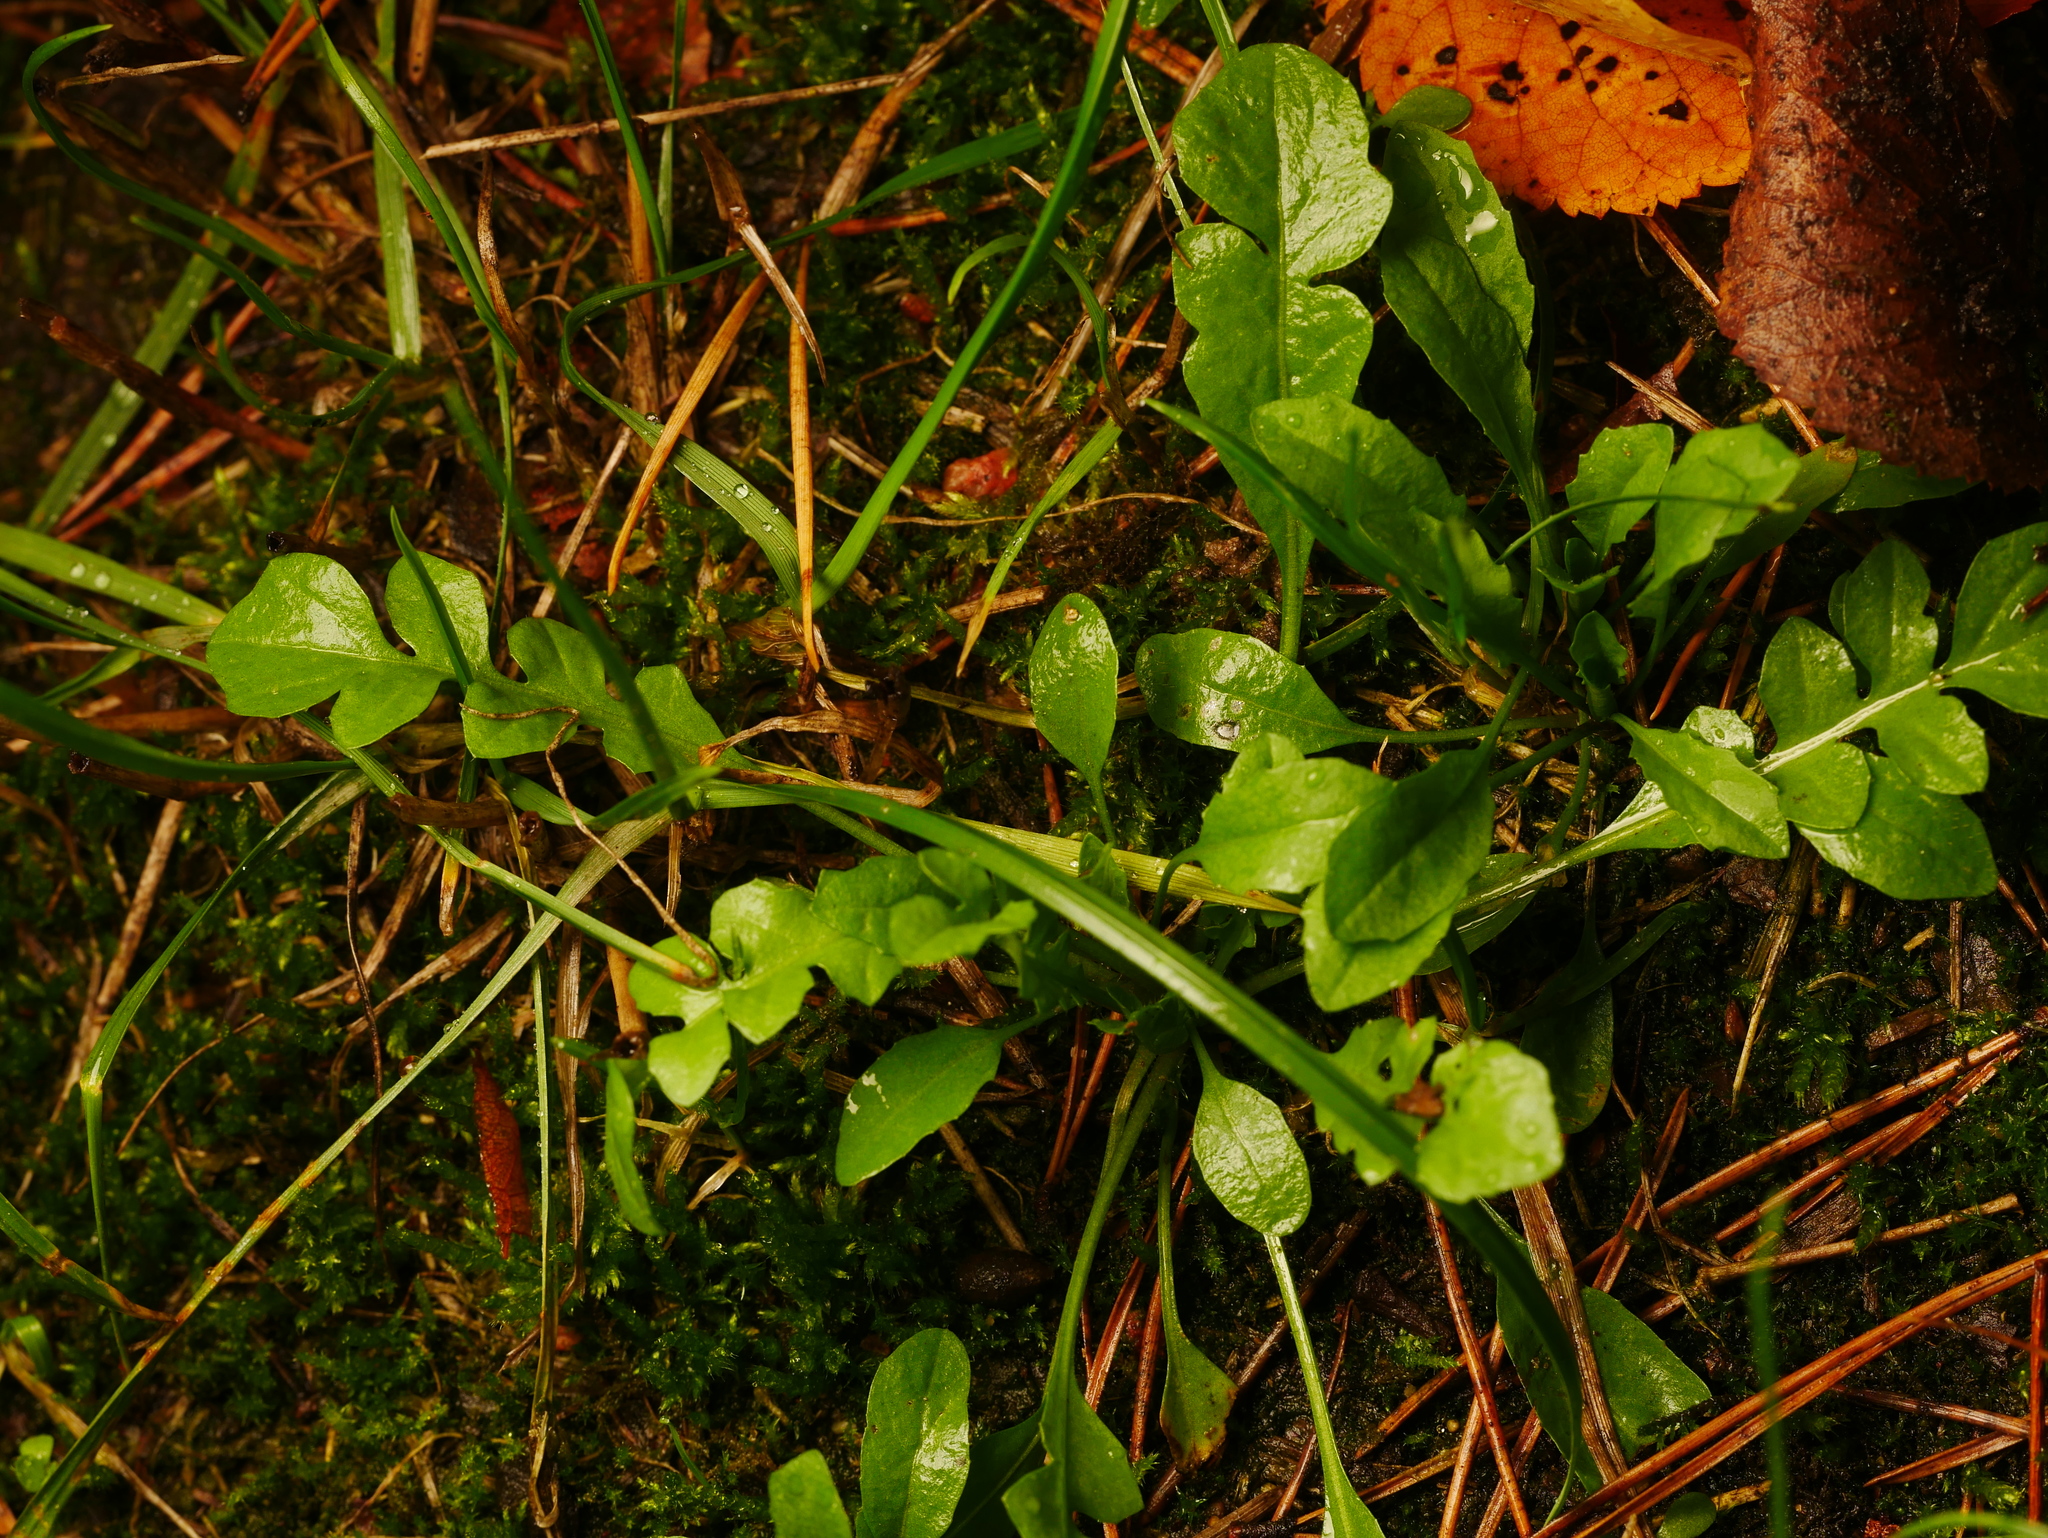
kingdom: Plantae
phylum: Tracheophyta
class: Magnoliopsida
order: Brassicales
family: Brassicaceae
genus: Capsella
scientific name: Capsella bursa-pastoris
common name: Shepherd's purse
